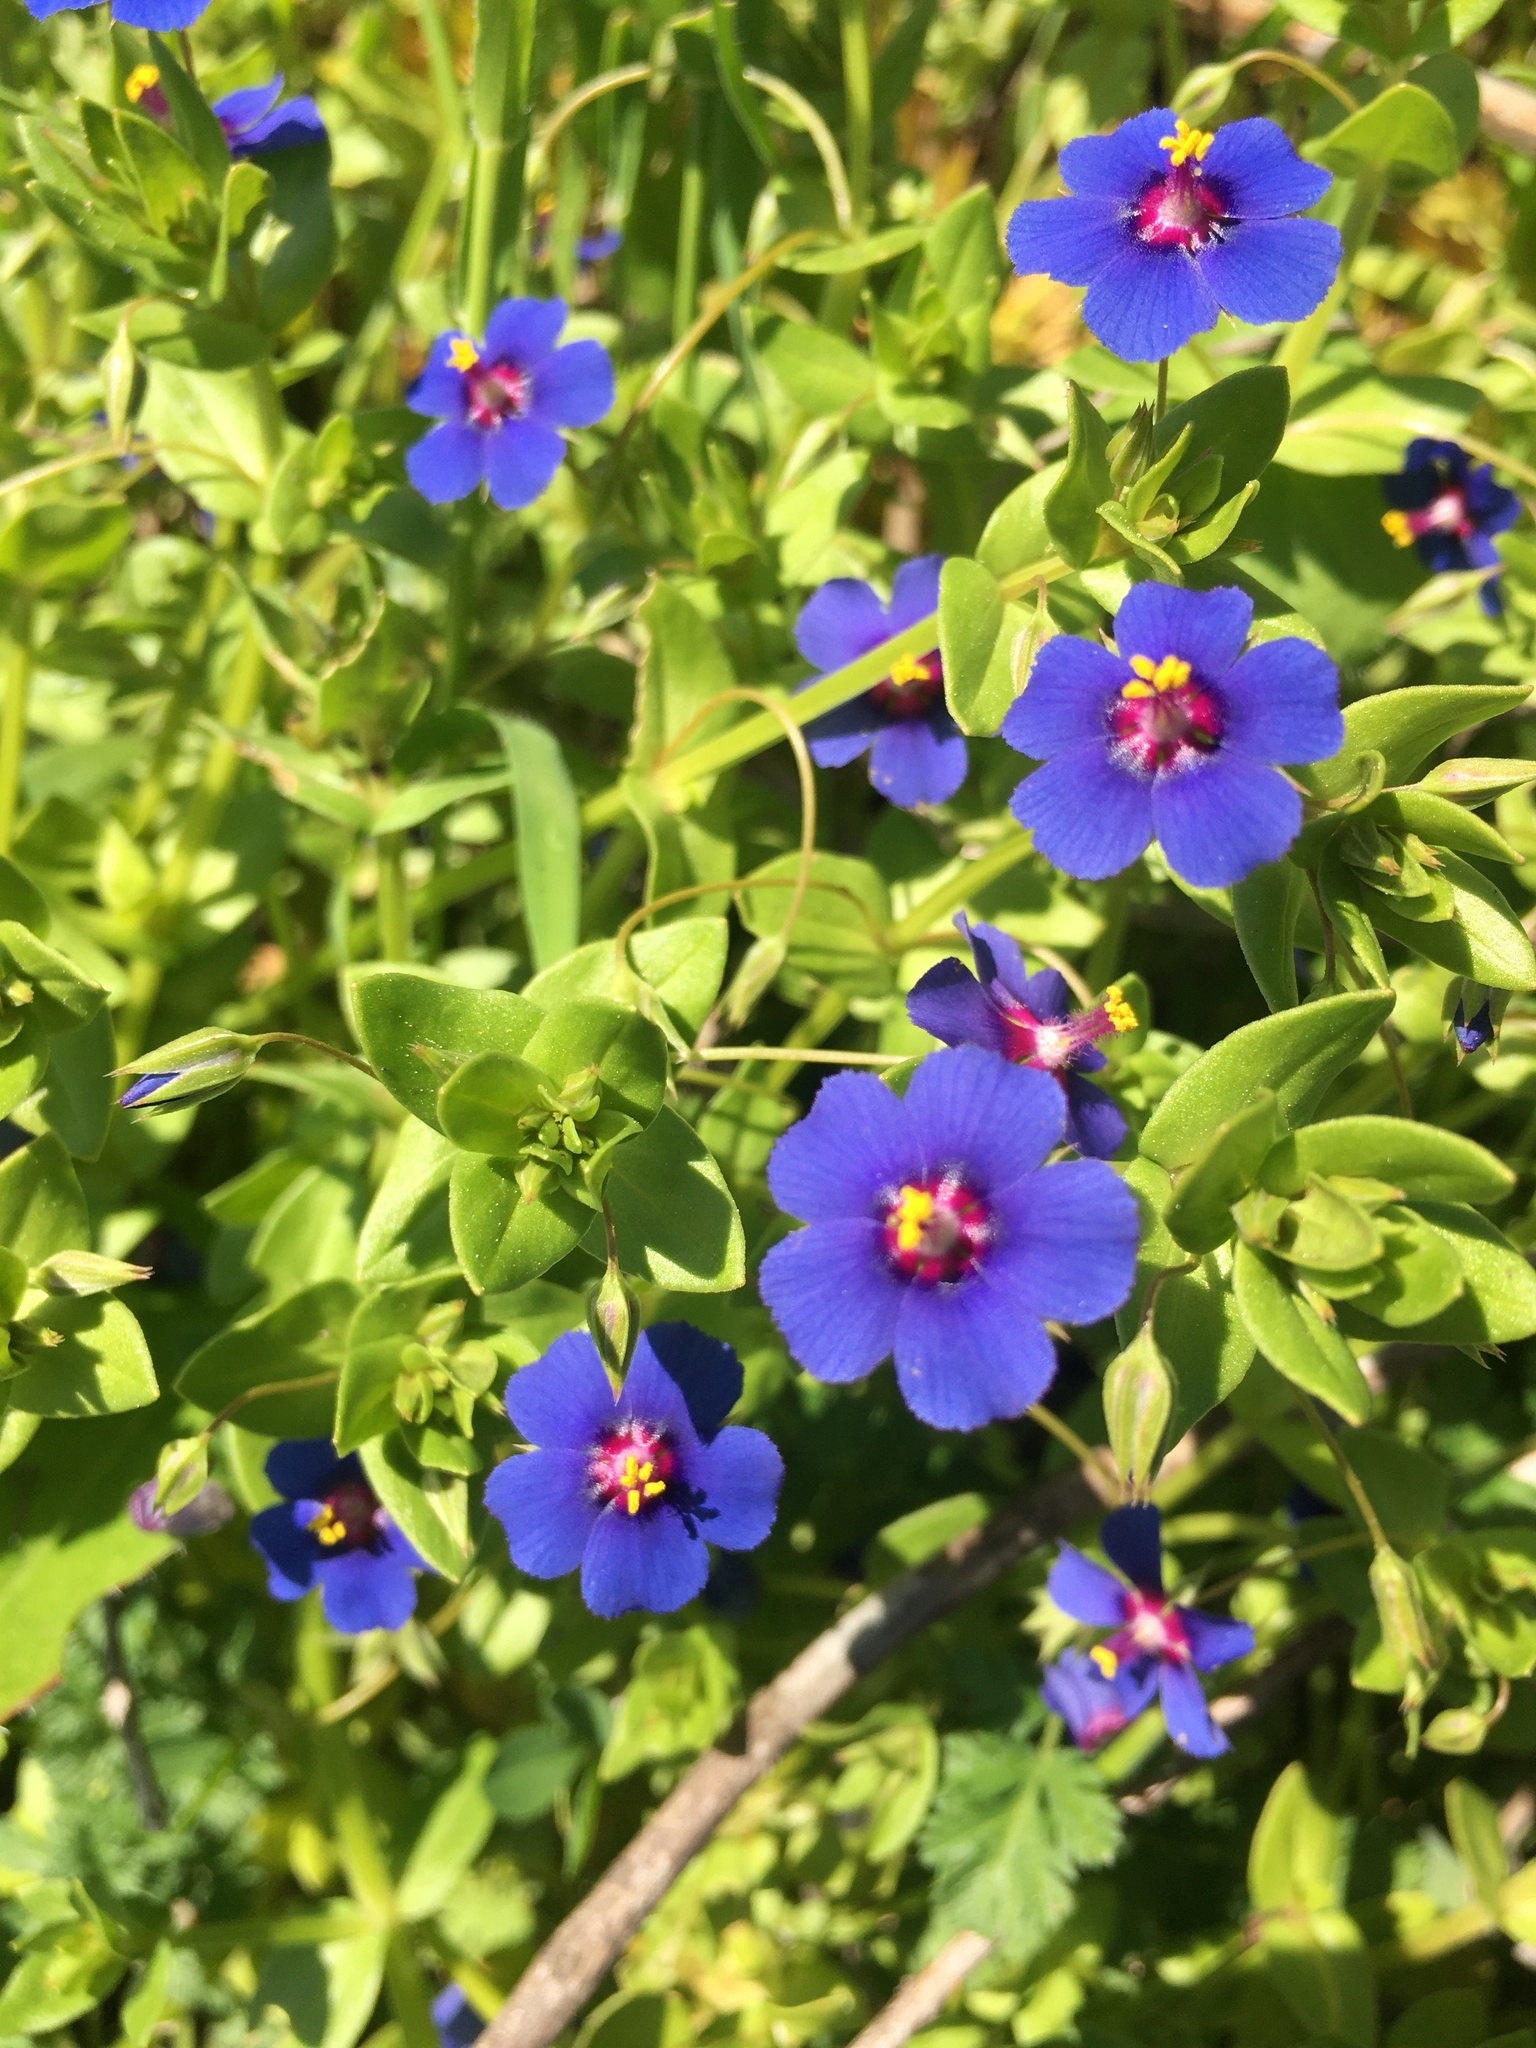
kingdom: Plantae
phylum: Tracheophyta
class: Magnoliopsida
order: Ericales
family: Primulaceae
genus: Lysimachia
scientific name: Lysimachia foemina
